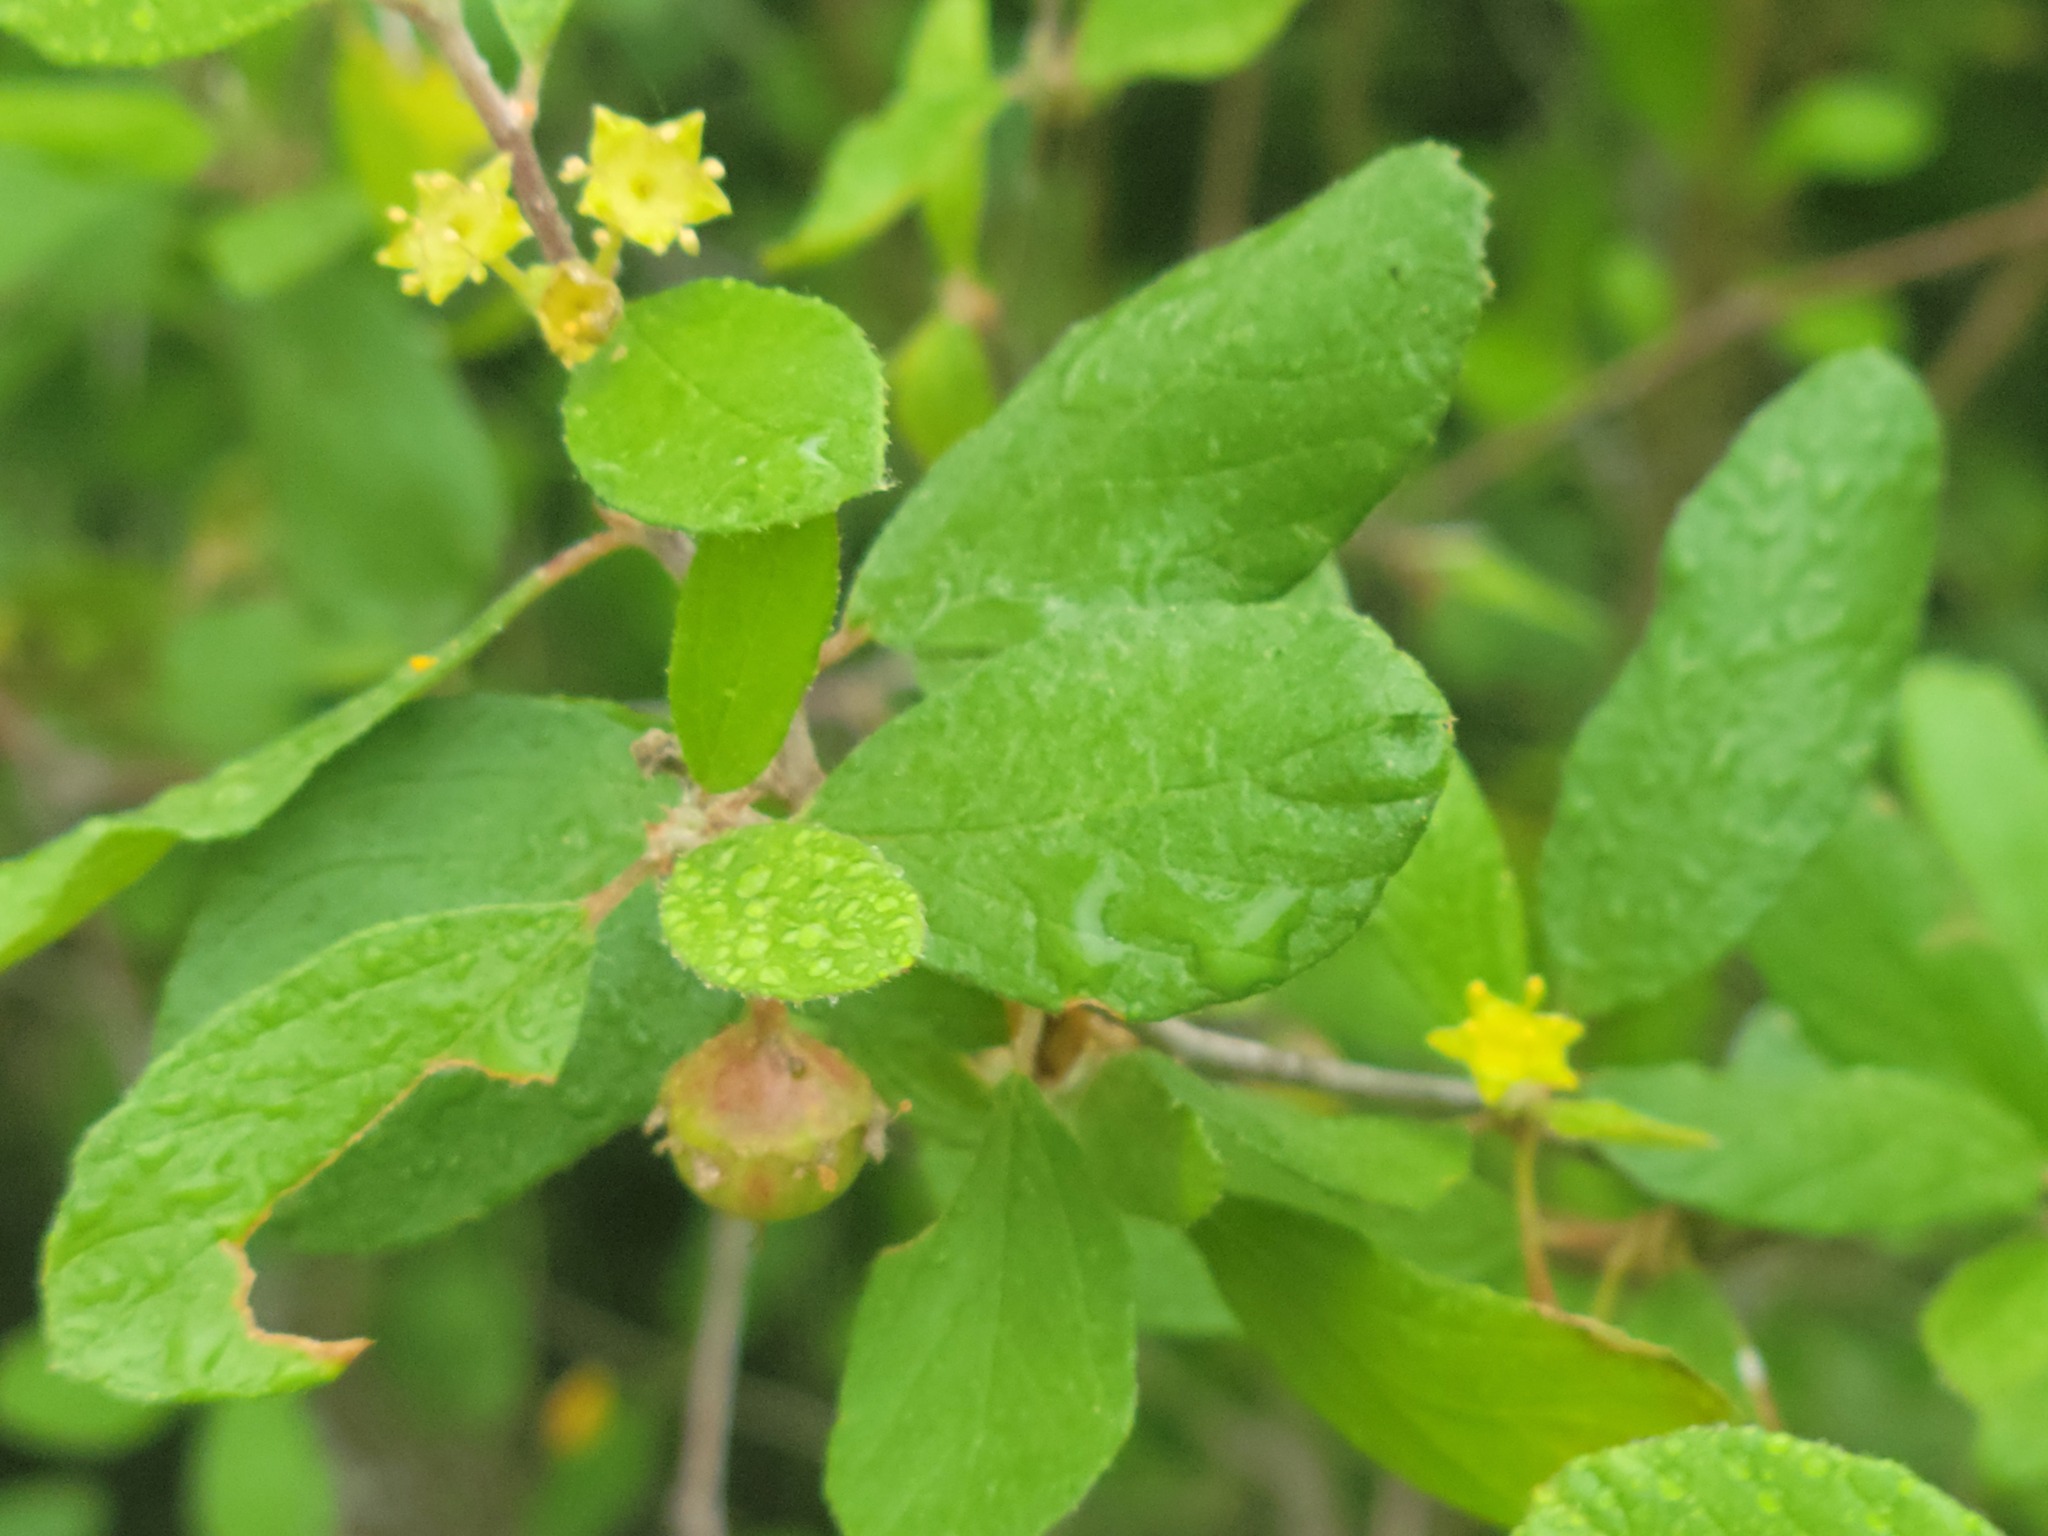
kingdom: Plantae
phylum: Tracheophyta
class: Magnoliopsida
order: Rosales
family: Rhamnaceae
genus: Colubrina
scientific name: Colubrina texensis
